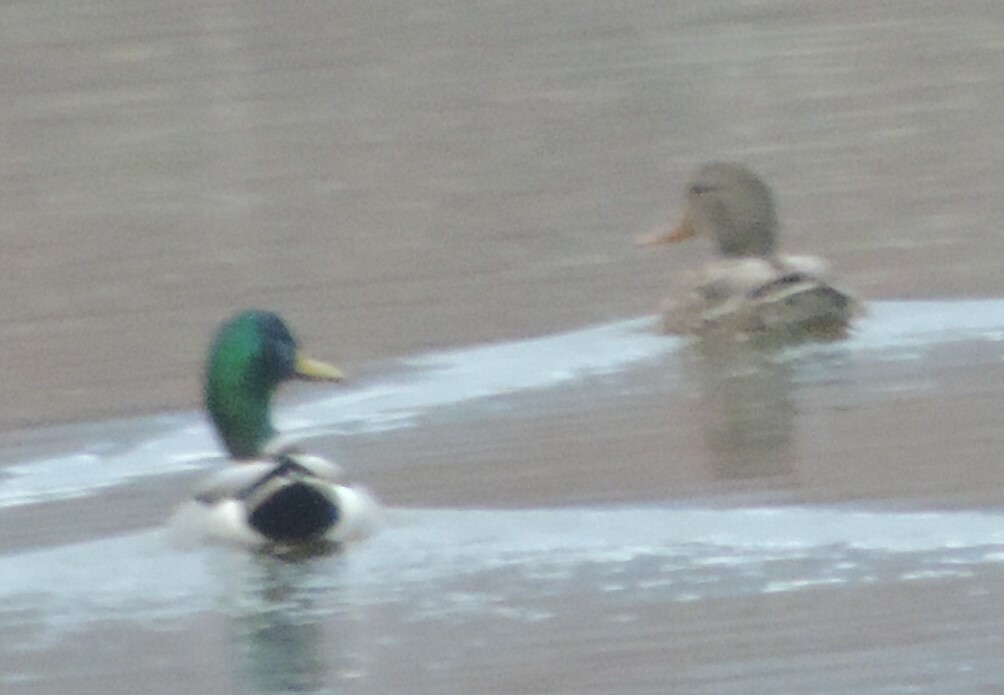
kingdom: Animalia
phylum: Chordata
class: Aves
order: Anseriformes
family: Anatidae
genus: Anas
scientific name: Anas platyrhynchos
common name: Mallard
